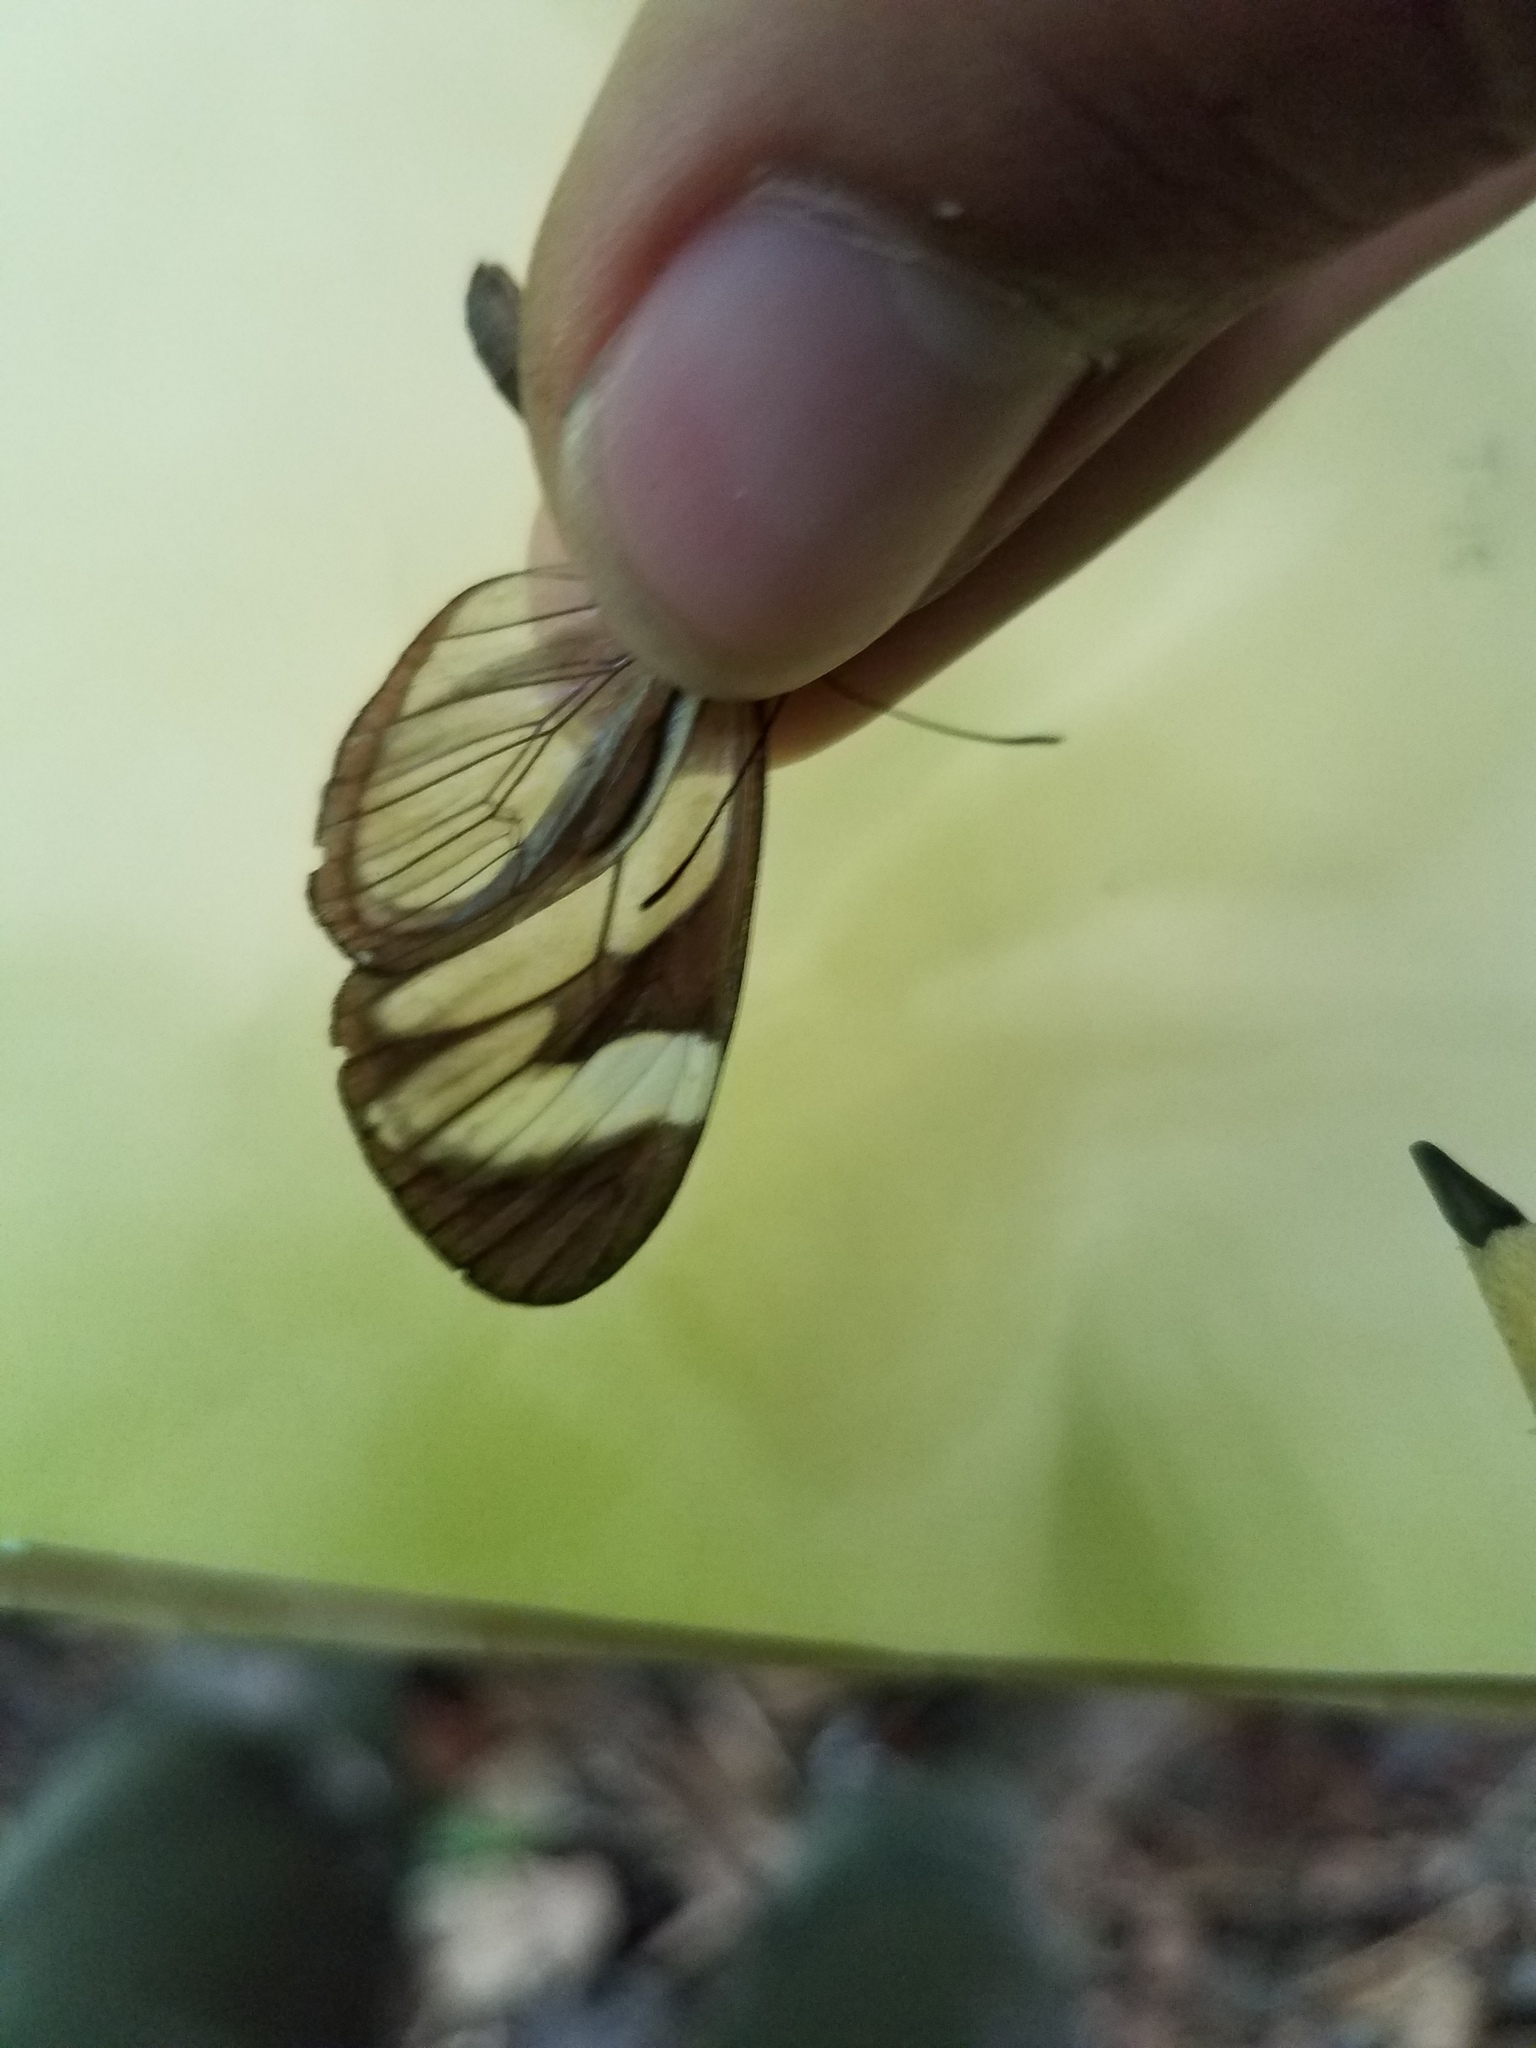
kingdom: Animalia
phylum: Arthropoda
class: Insecta
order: Lepidoptera
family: Nymphalidae
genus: Ithomia
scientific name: Ithomia patilla
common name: Patilla clearwing
